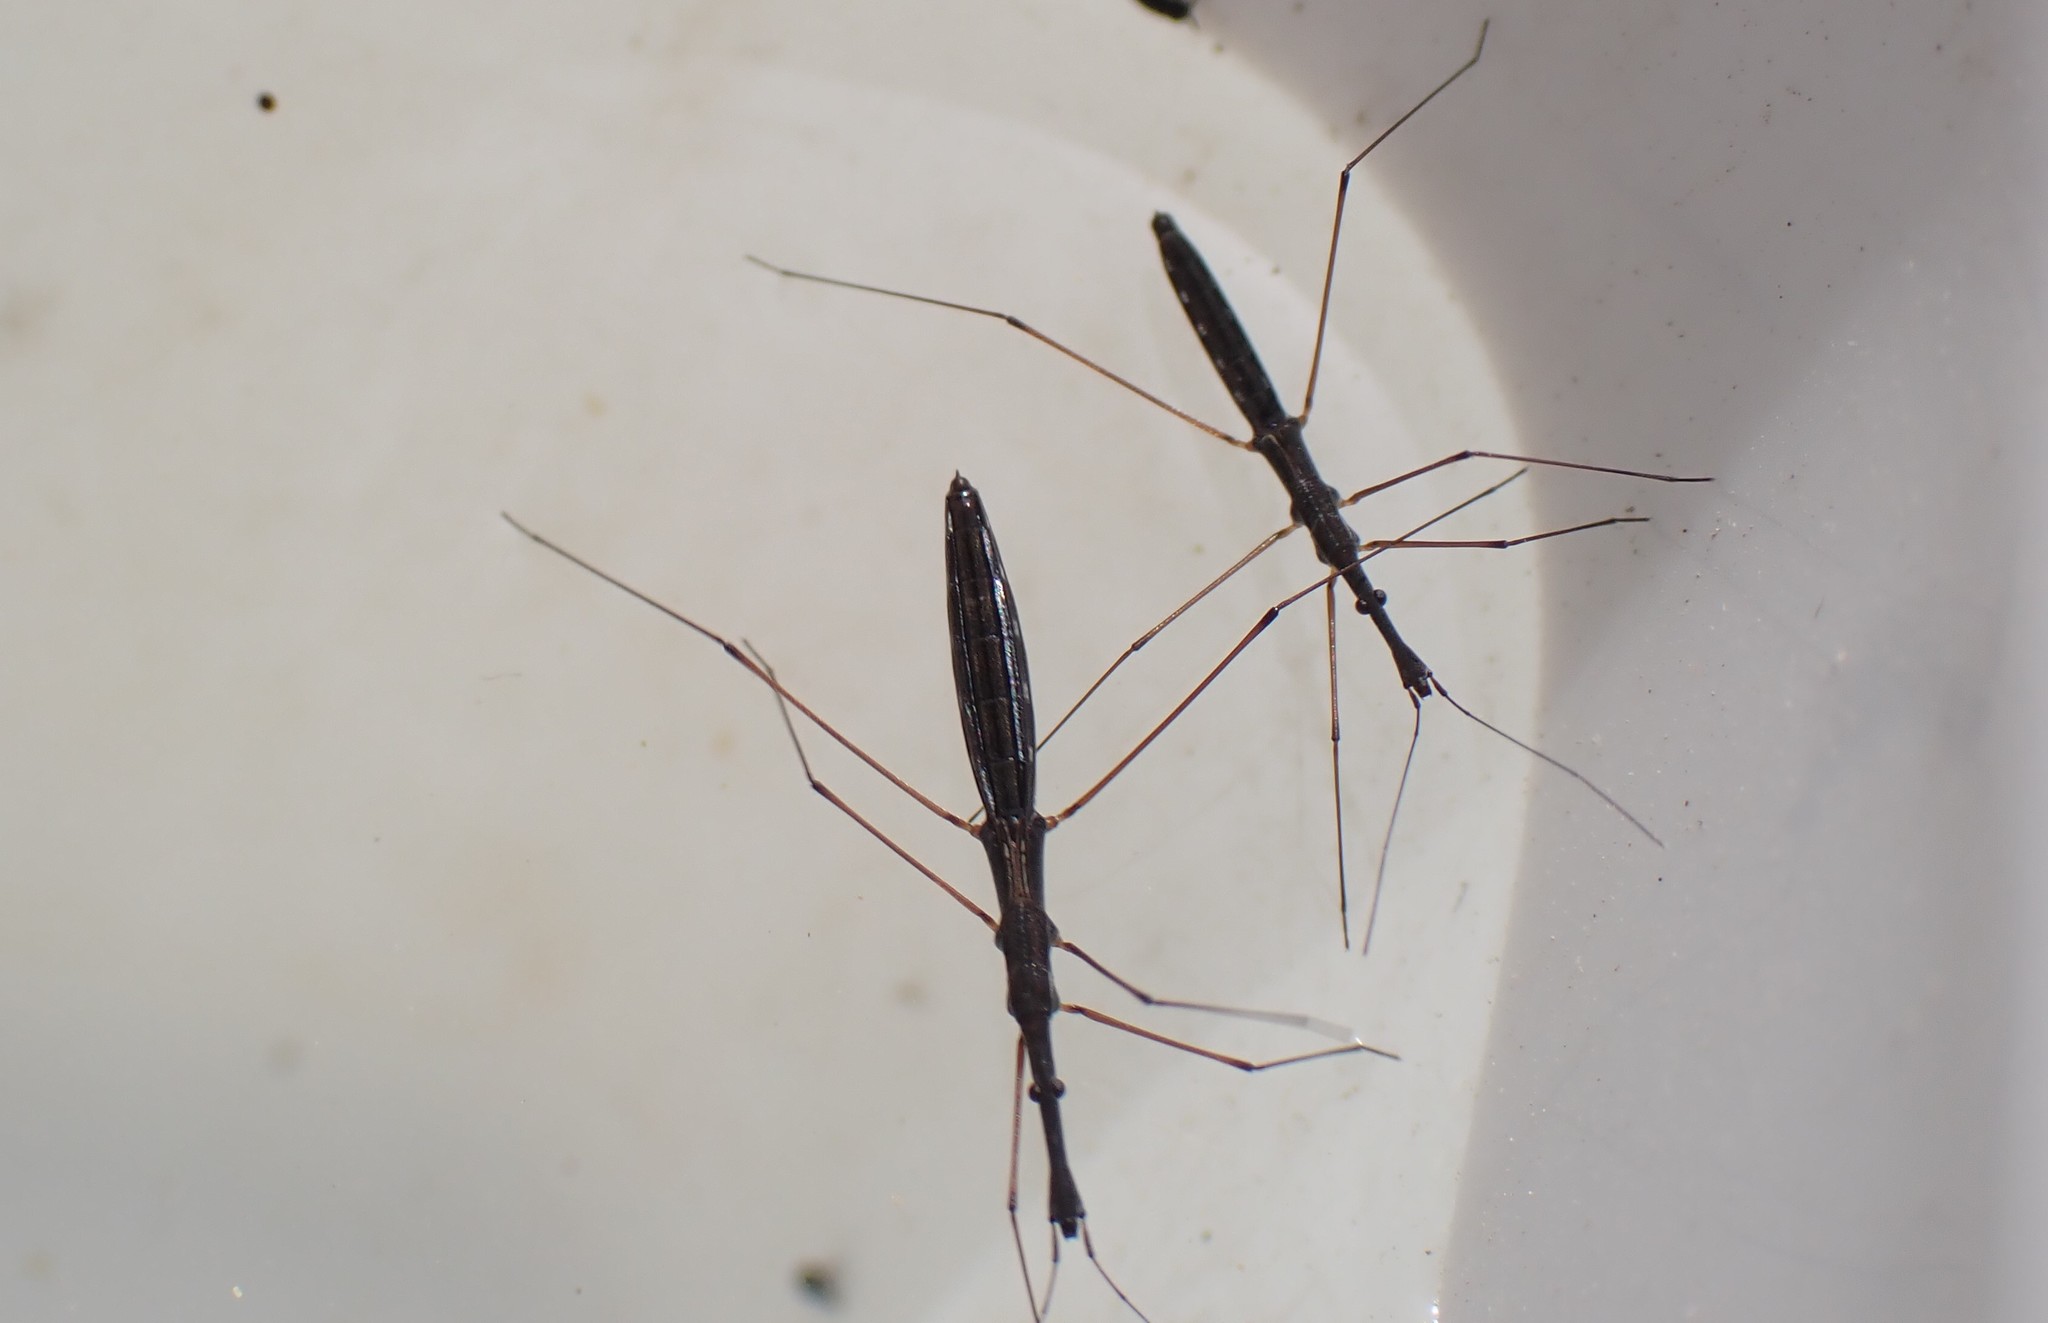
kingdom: Animalia
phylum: Arthropoda
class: Insecta
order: Hemiptera
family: Hydrometridae
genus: Hydrometra
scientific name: Hydrometra stagnorum
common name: Water measurer
